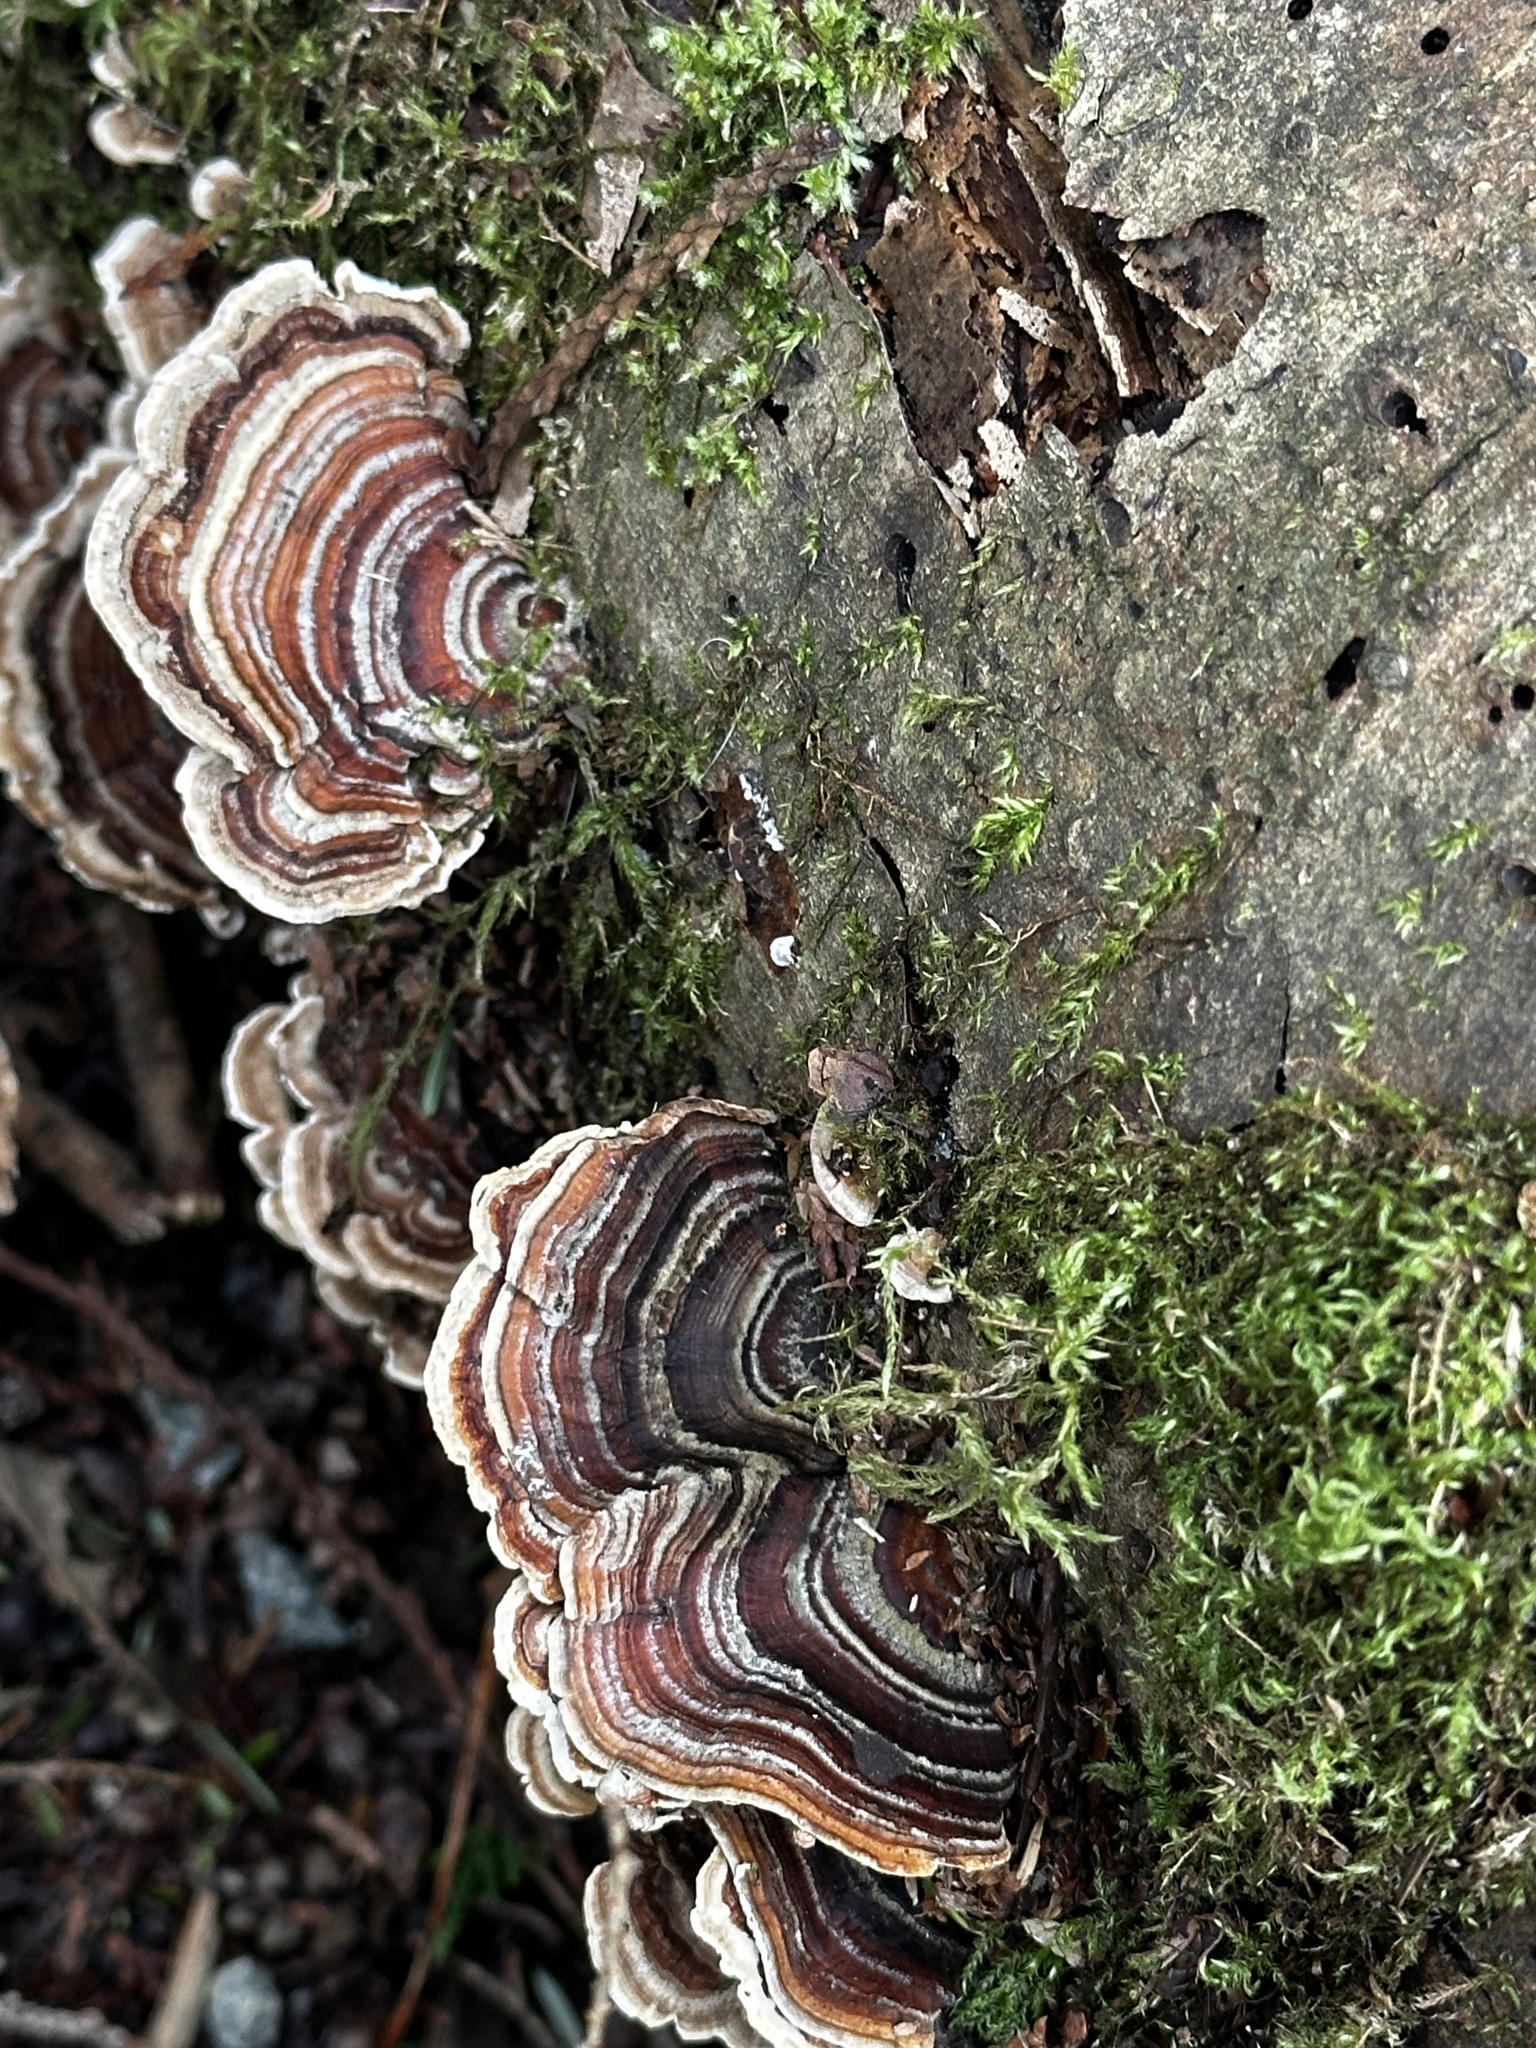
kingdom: Fungi
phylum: Basidiomycota
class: Agaricomycetes
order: Polyporales
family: Polyporaceae
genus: Trametes
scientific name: Trametes versicolor
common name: Turkeytail
